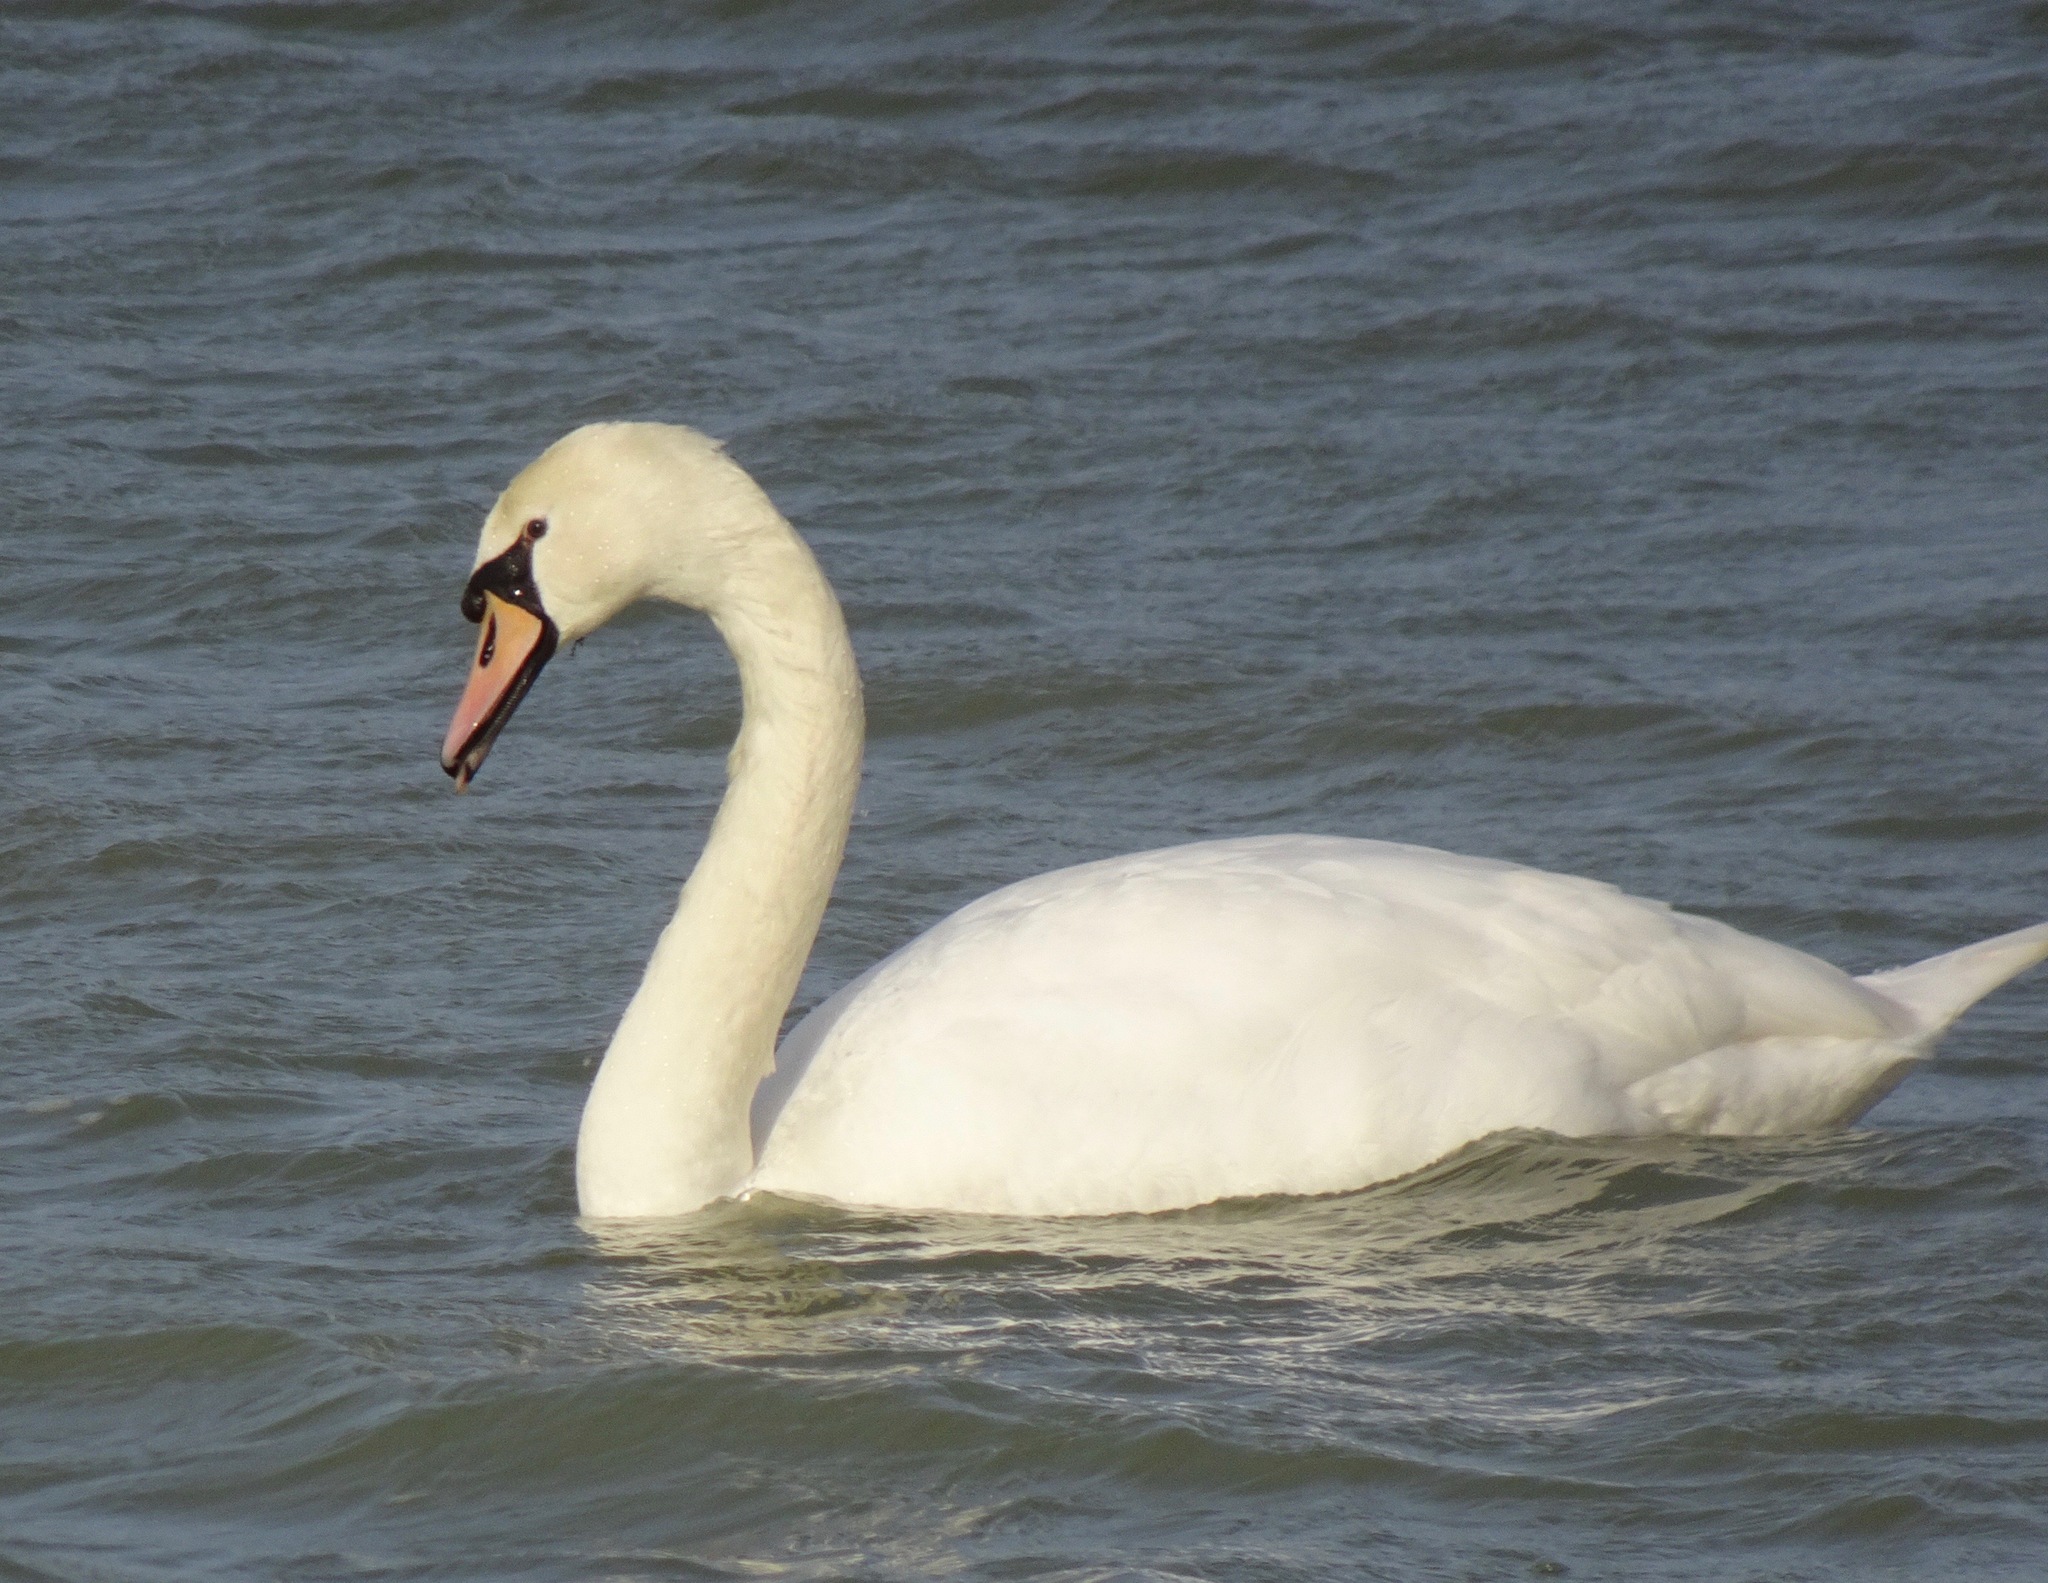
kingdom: Animalia
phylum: Chordata
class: Aves
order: Anseriformes
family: Anatidae
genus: Cygnus
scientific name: Cygnus olor
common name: Mute swan
